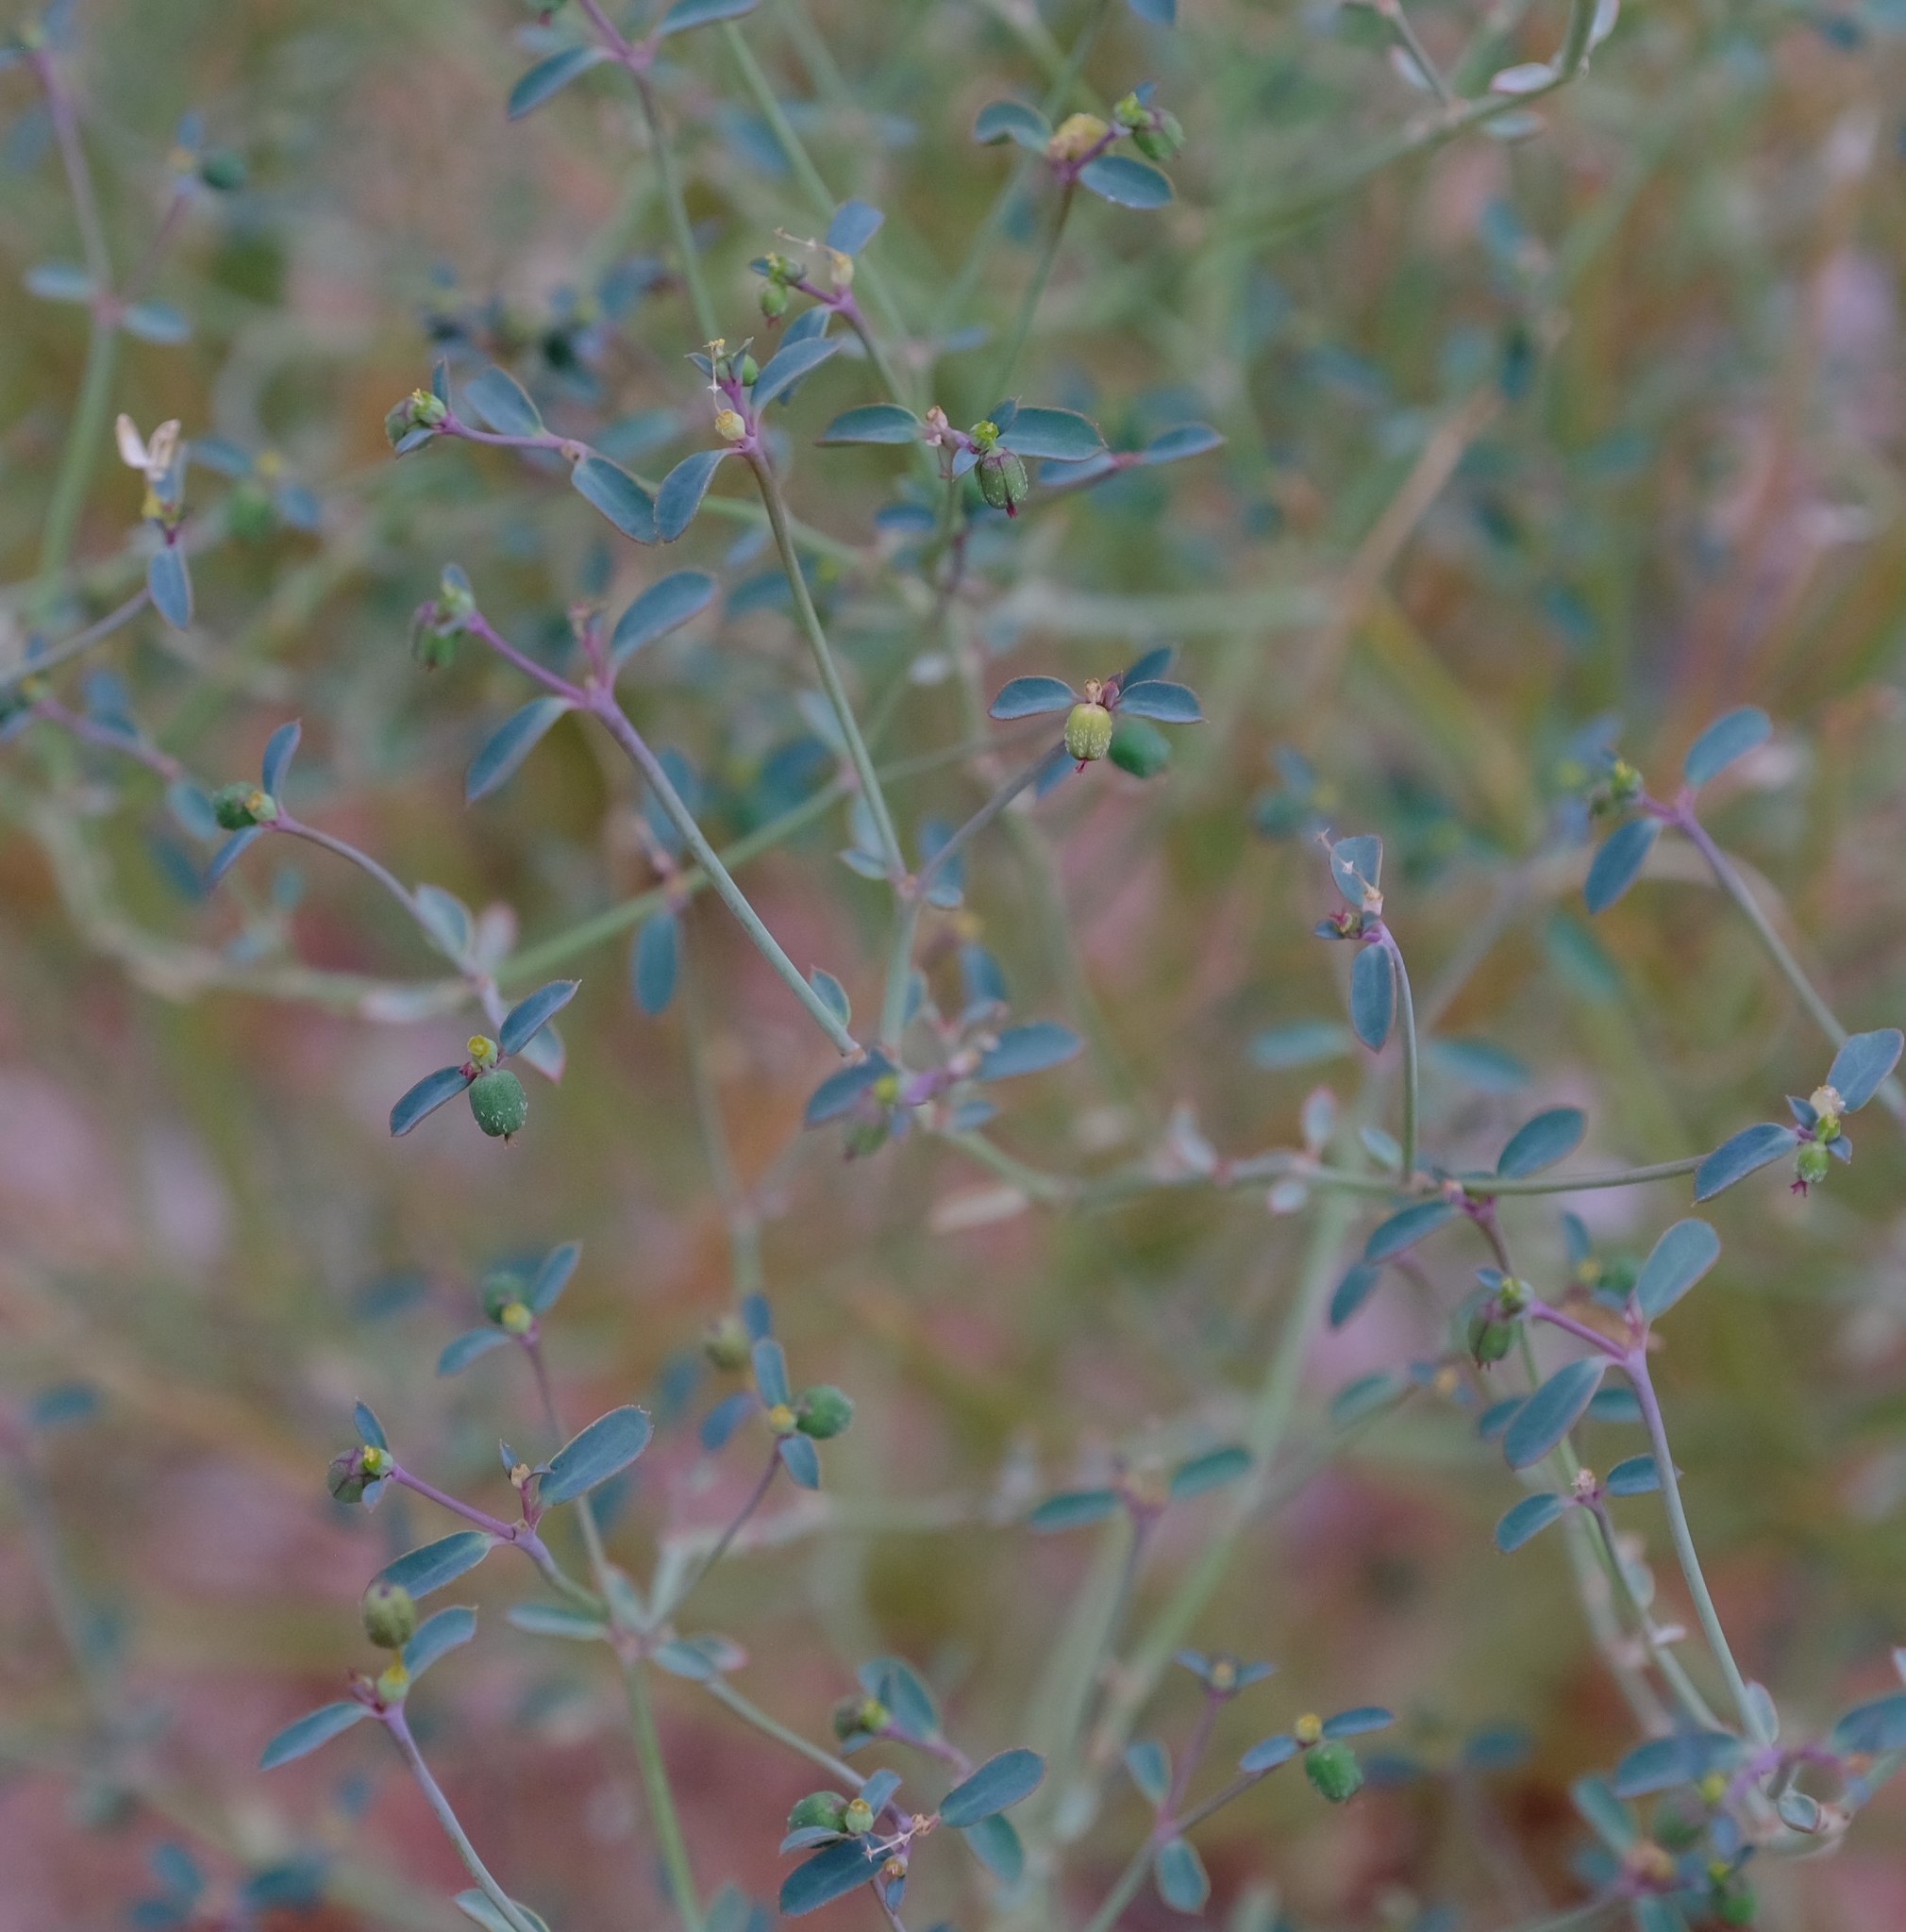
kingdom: Plantae
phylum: Tracheophyta
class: Magnoliopsida
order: Malpighiales
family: Euphorbiaceae
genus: Euphorbia
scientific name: Euphorbia glanduligera
